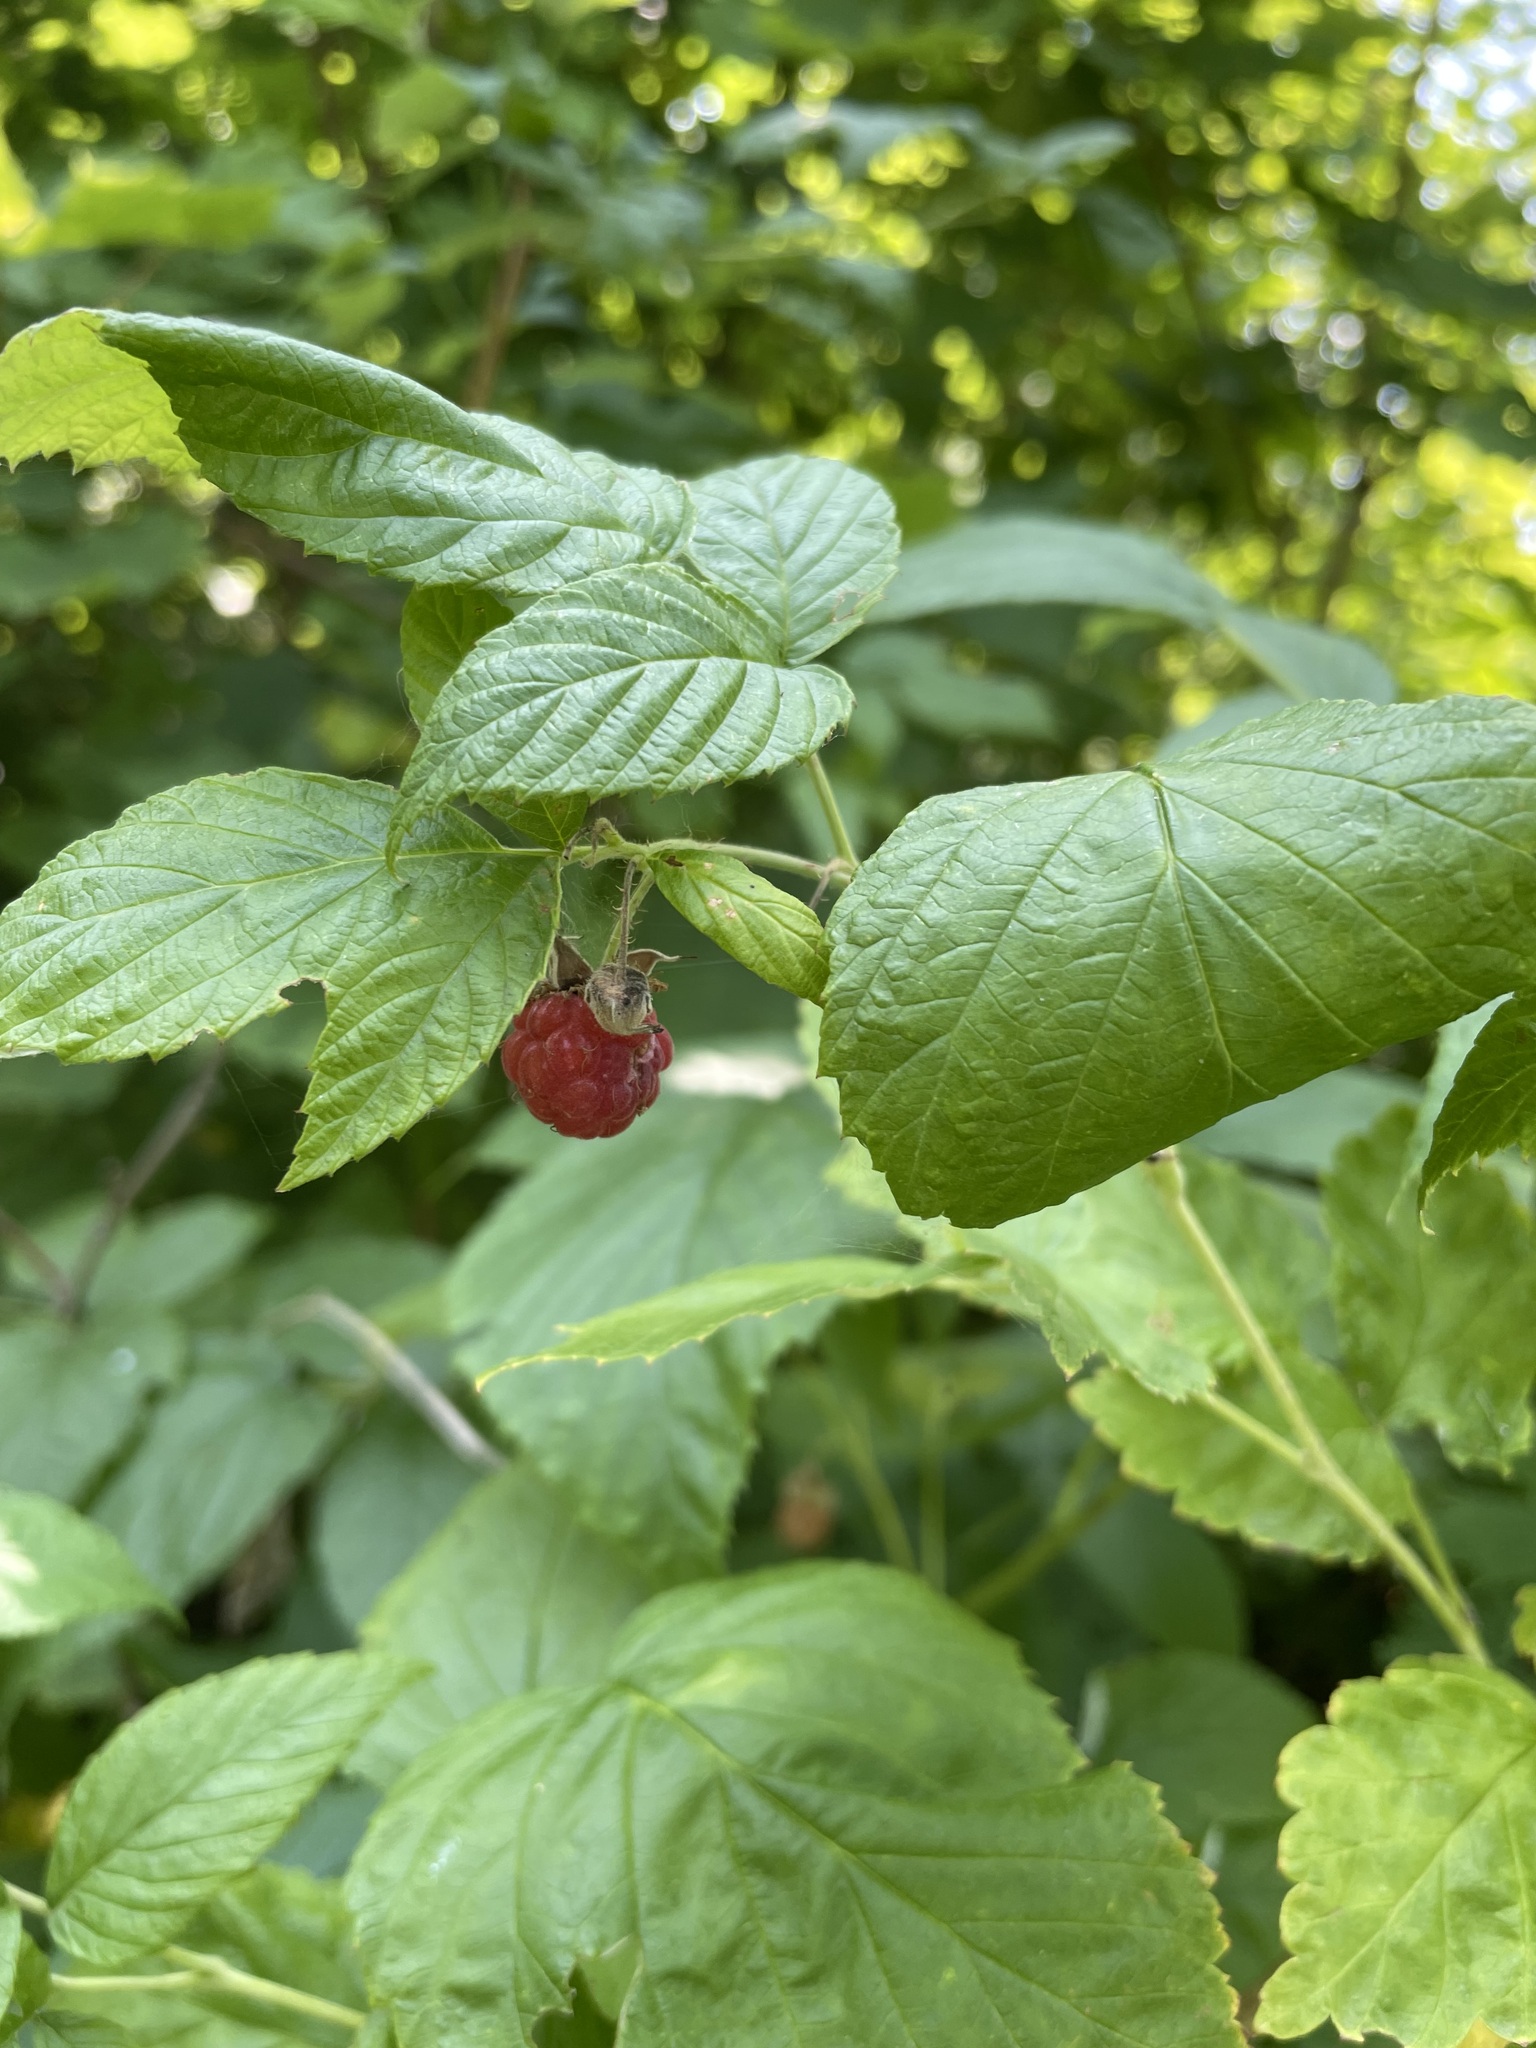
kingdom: Plantae
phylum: Tracheophyta
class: Magnoliopsida
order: Rosales
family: Rosaceae
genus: Rubus
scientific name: Rubus idaeus
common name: Raspberry
